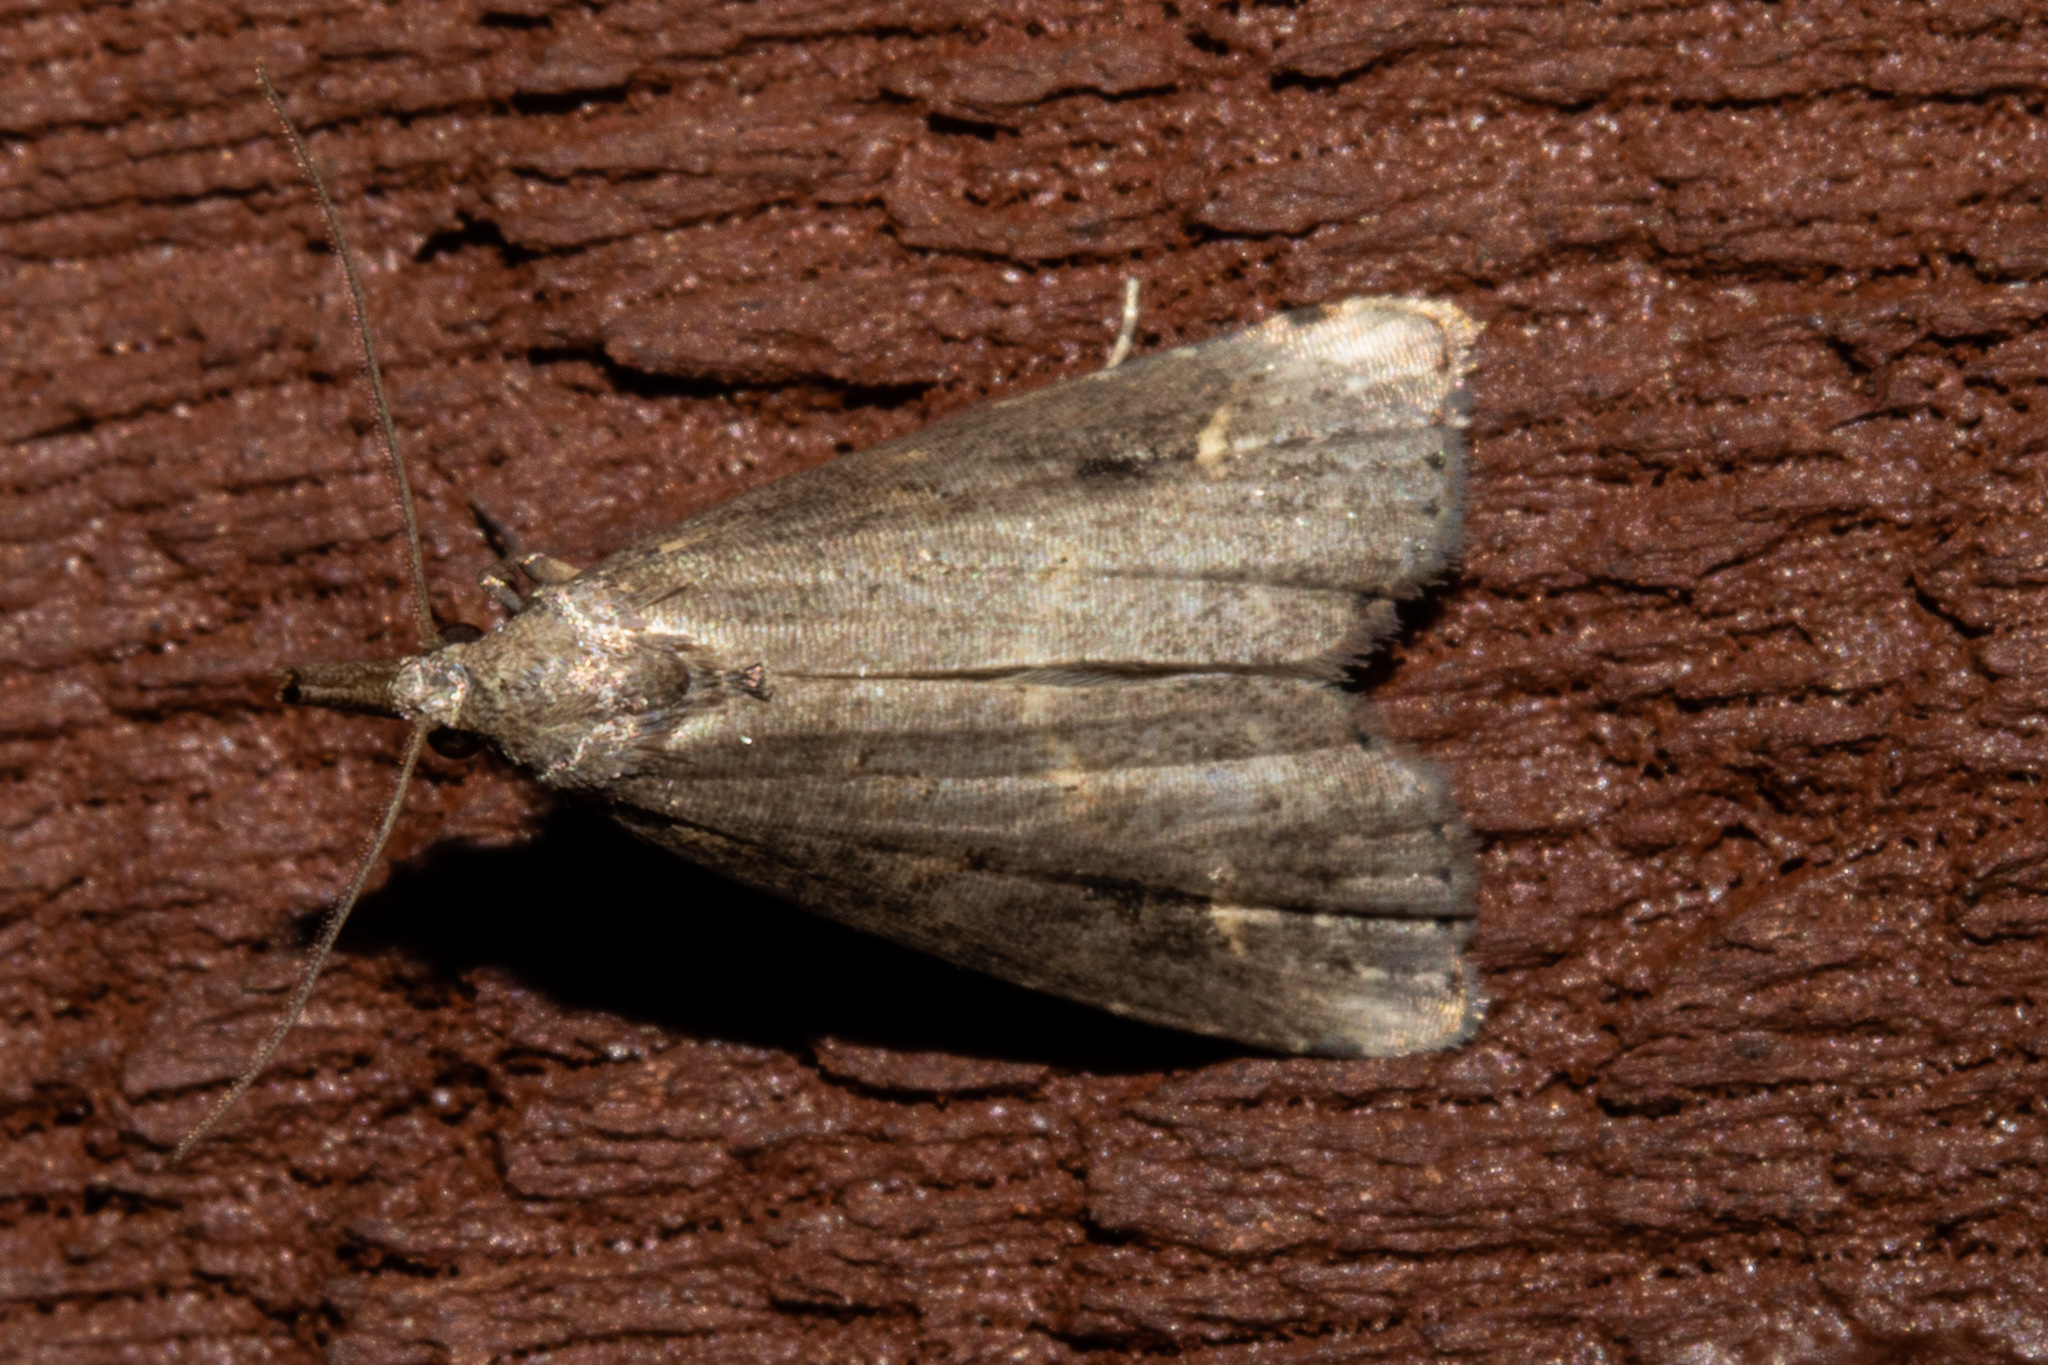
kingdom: Animalia
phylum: Arthropoda
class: Insecta
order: Lepidoptera
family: Erebidae
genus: Schrankia
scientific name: Schrankia costaestrigalis
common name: Pinion-streaked snout
